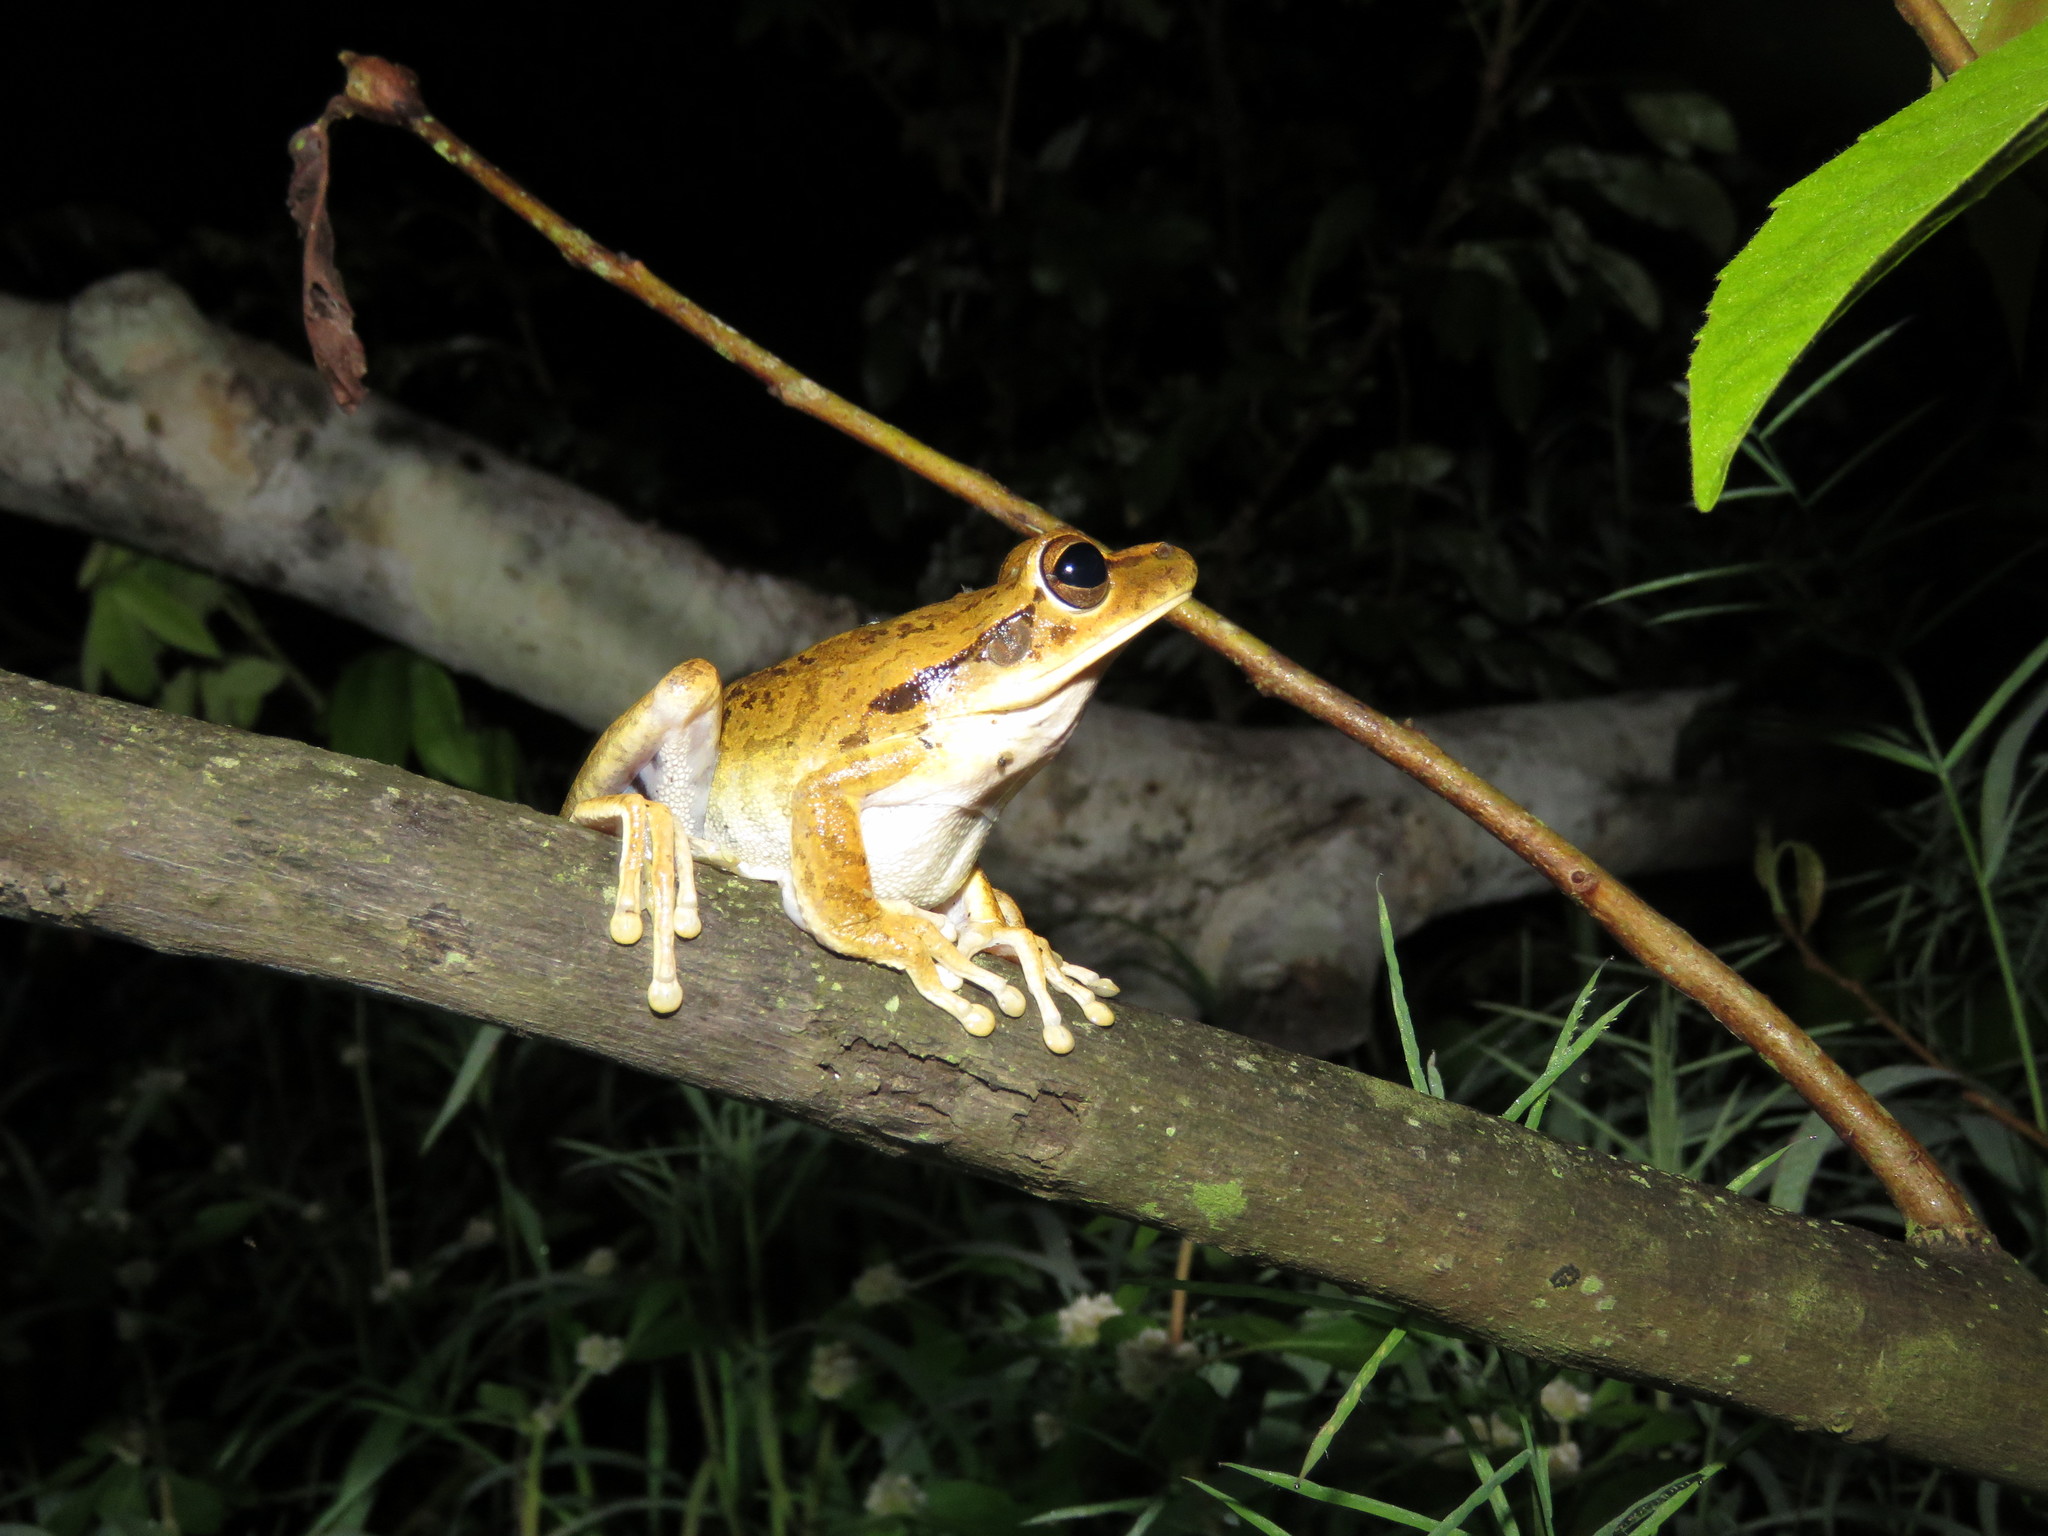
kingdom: Animalia
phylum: Chordata
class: Amphibia
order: Anura
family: Hylidae
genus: Boana
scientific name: Boana raniceps
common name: Chaco treefrog
